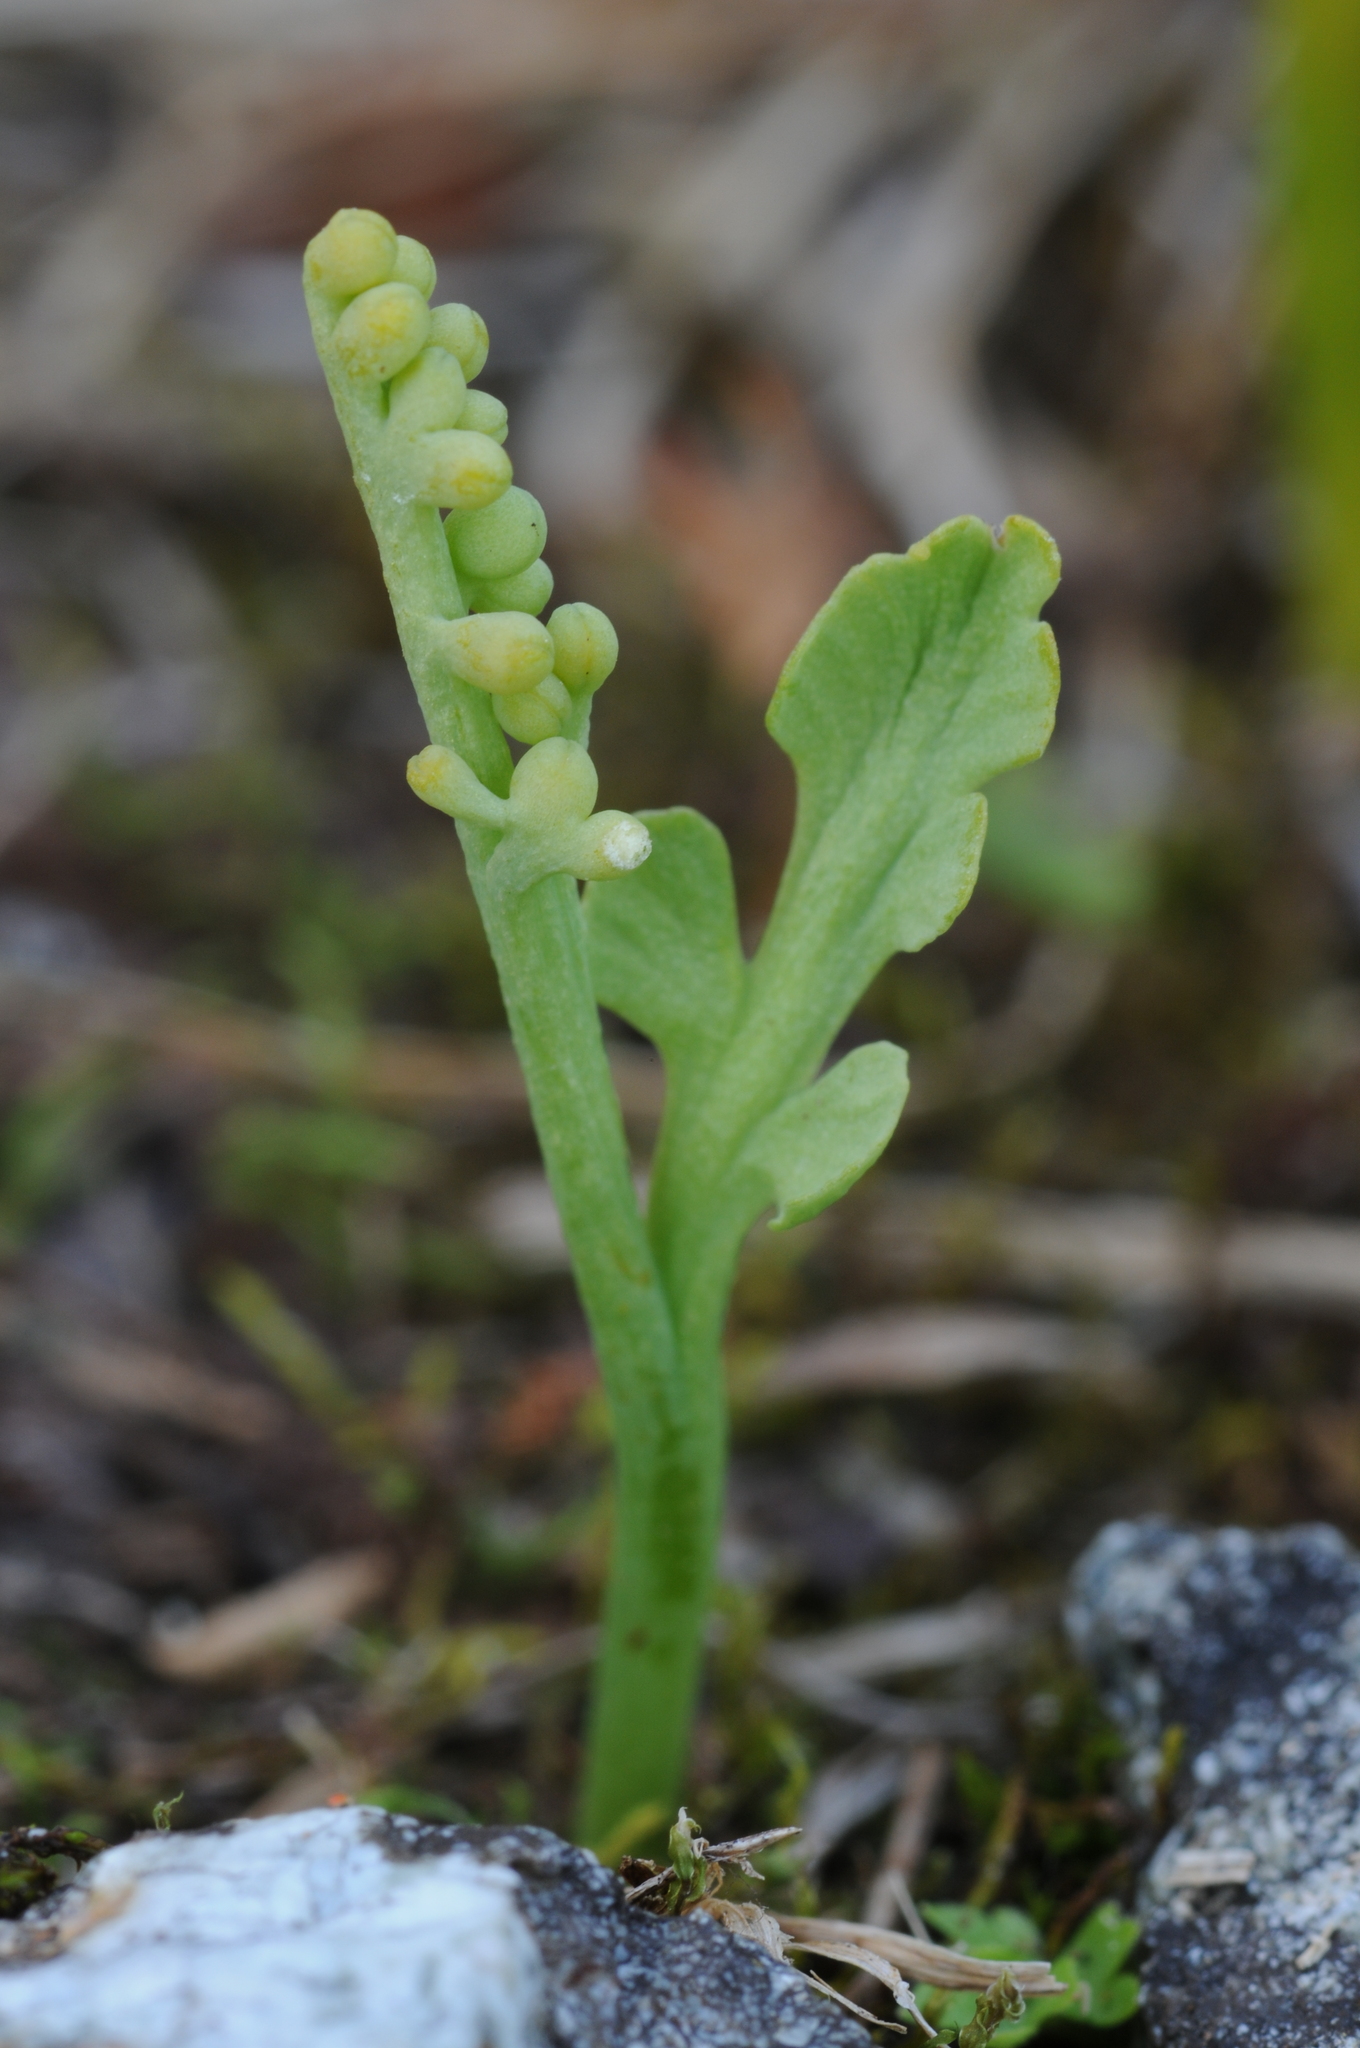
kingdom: Plantae
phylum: Tracheophyta
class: Polypodiopsida
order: Ophioglossales
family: Ophioglossaceae
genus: Botrychium
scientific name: Botrychium montanum
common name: Mountain moonwort
